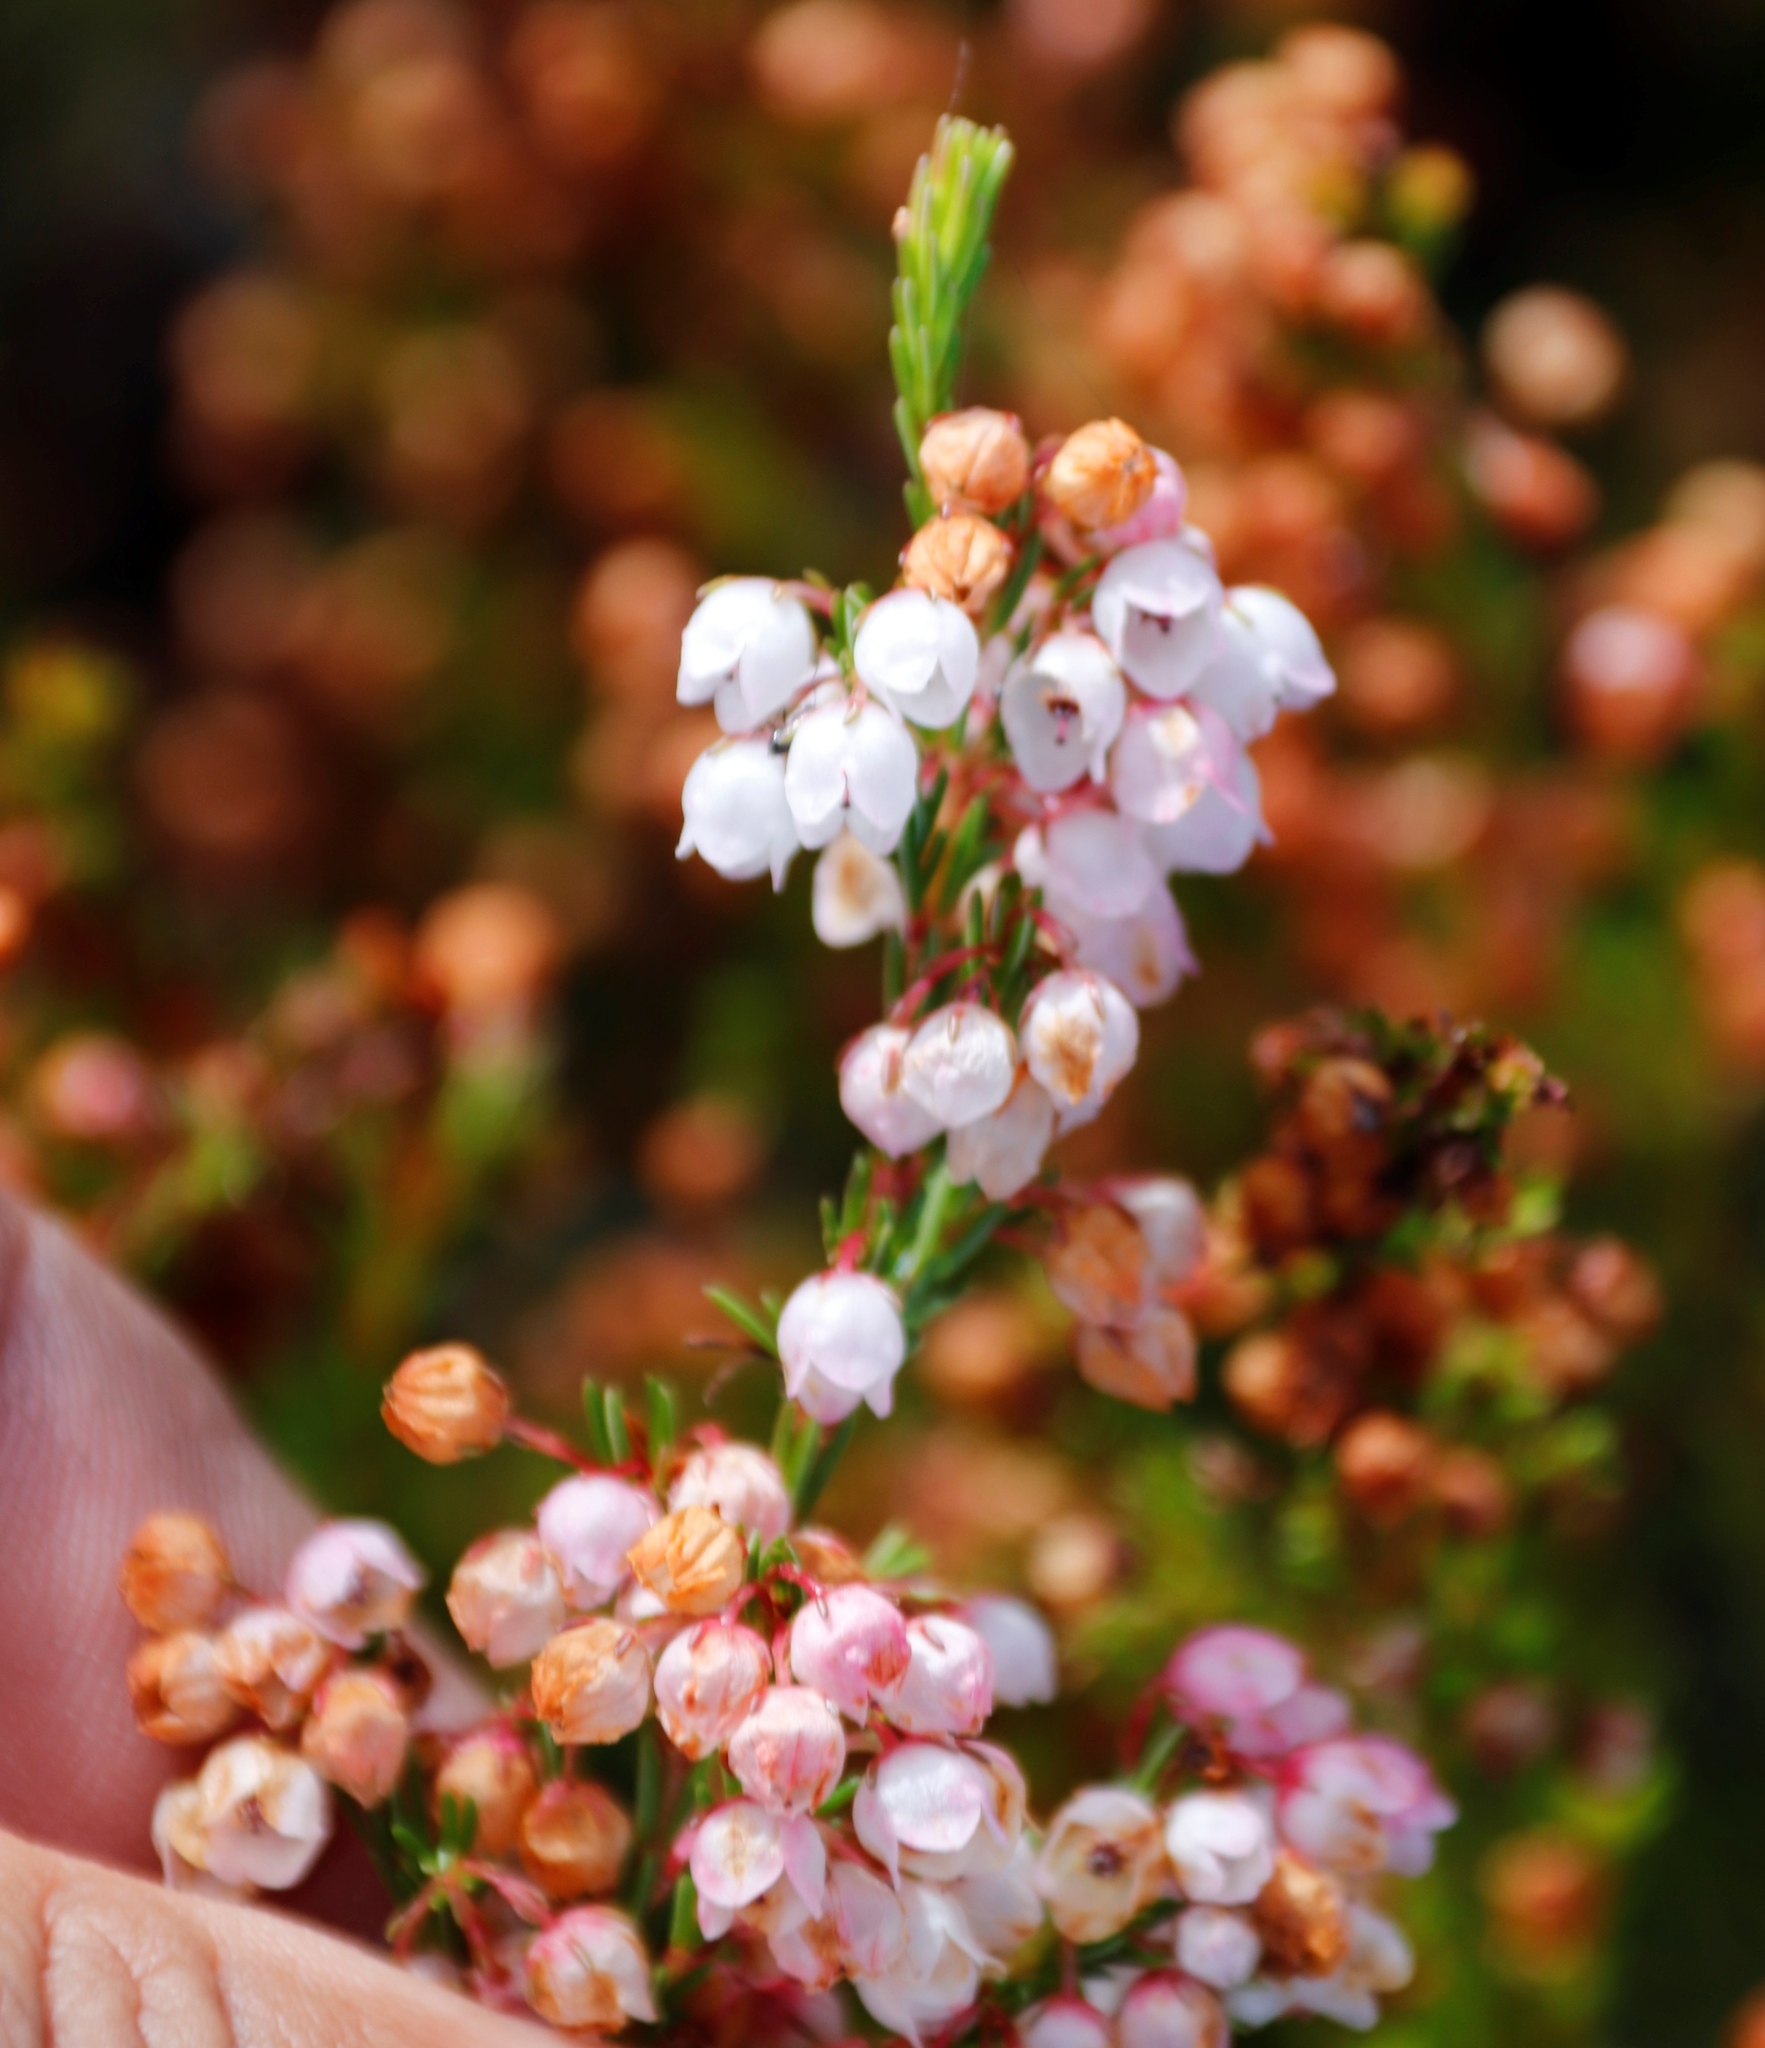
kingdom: Plantae
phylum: Tracheophyta
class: Magnoliopsida
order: Ericales
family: Ericaceae
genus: Erica
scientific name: Erica subdivaricata
